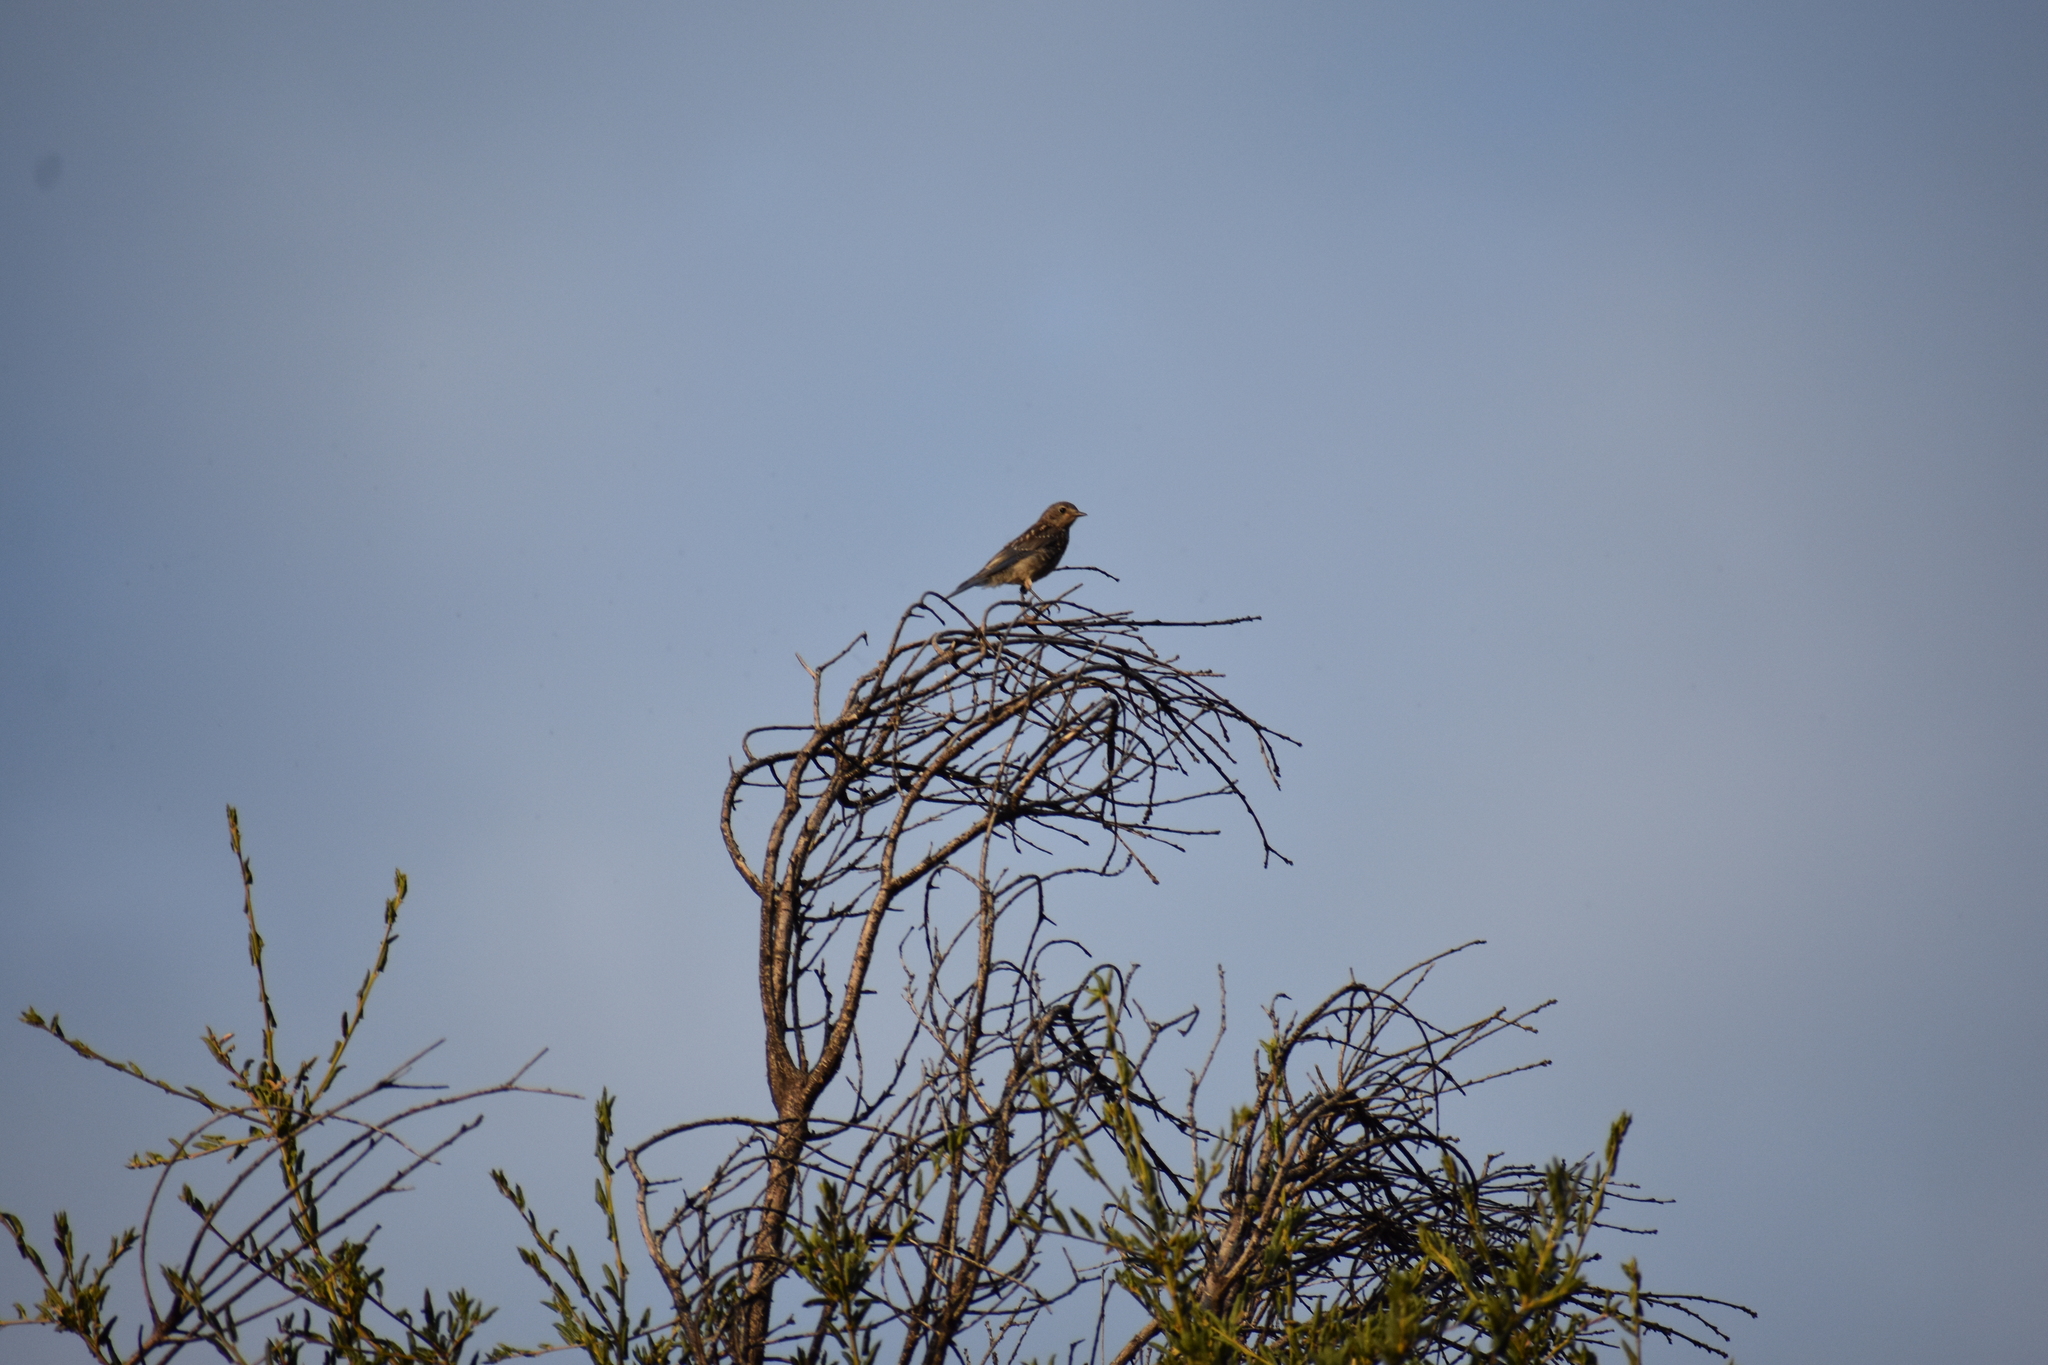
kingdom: Animalia
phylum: Chordata
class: Aves
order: Passeriformes
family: Turdidae
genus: Sialia
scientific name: Sialia mexicana
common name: Western bluebird
